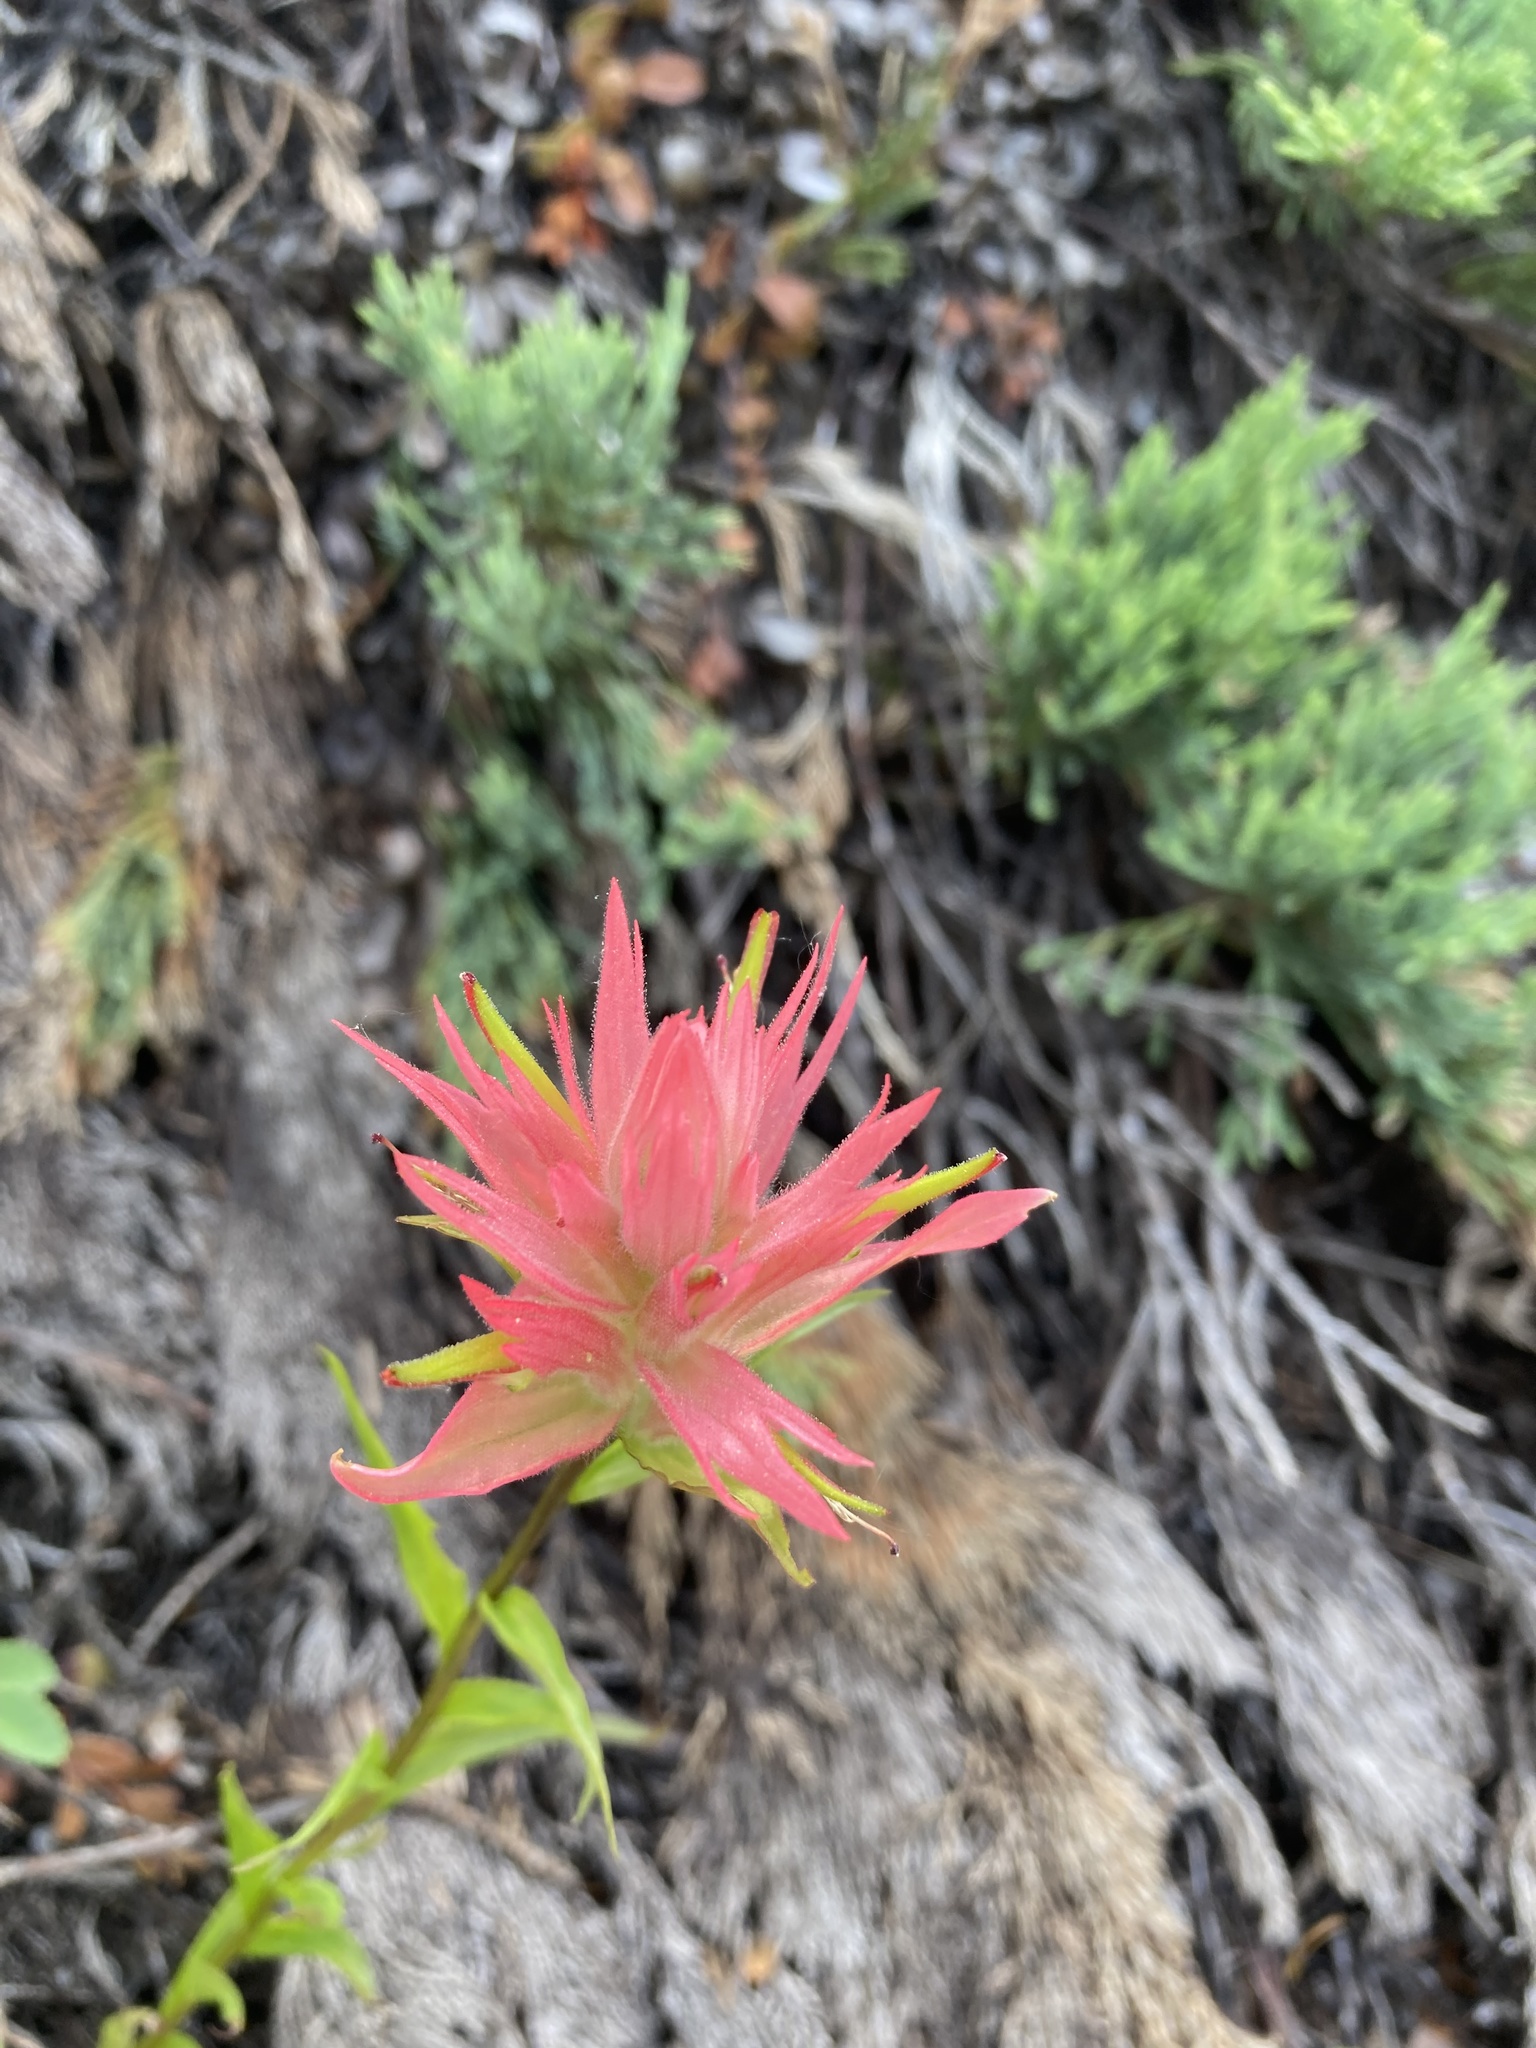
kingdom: Plantae
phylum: Tracheophyta
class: Magnoliopsida
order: Lamiales
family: Orobanchaceae
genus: Castilleja
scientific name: Castilleja miniata
